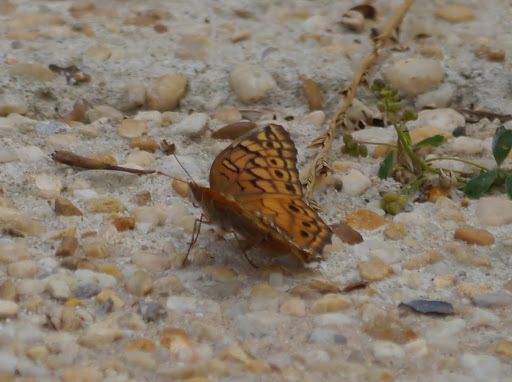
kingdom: Animalia
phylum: Arthropoda
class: Insecta
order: Lepidoptera
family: Nymphalidae
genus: Euptoieta
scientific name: Euptoieta claudia
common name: Variegated fritillary
